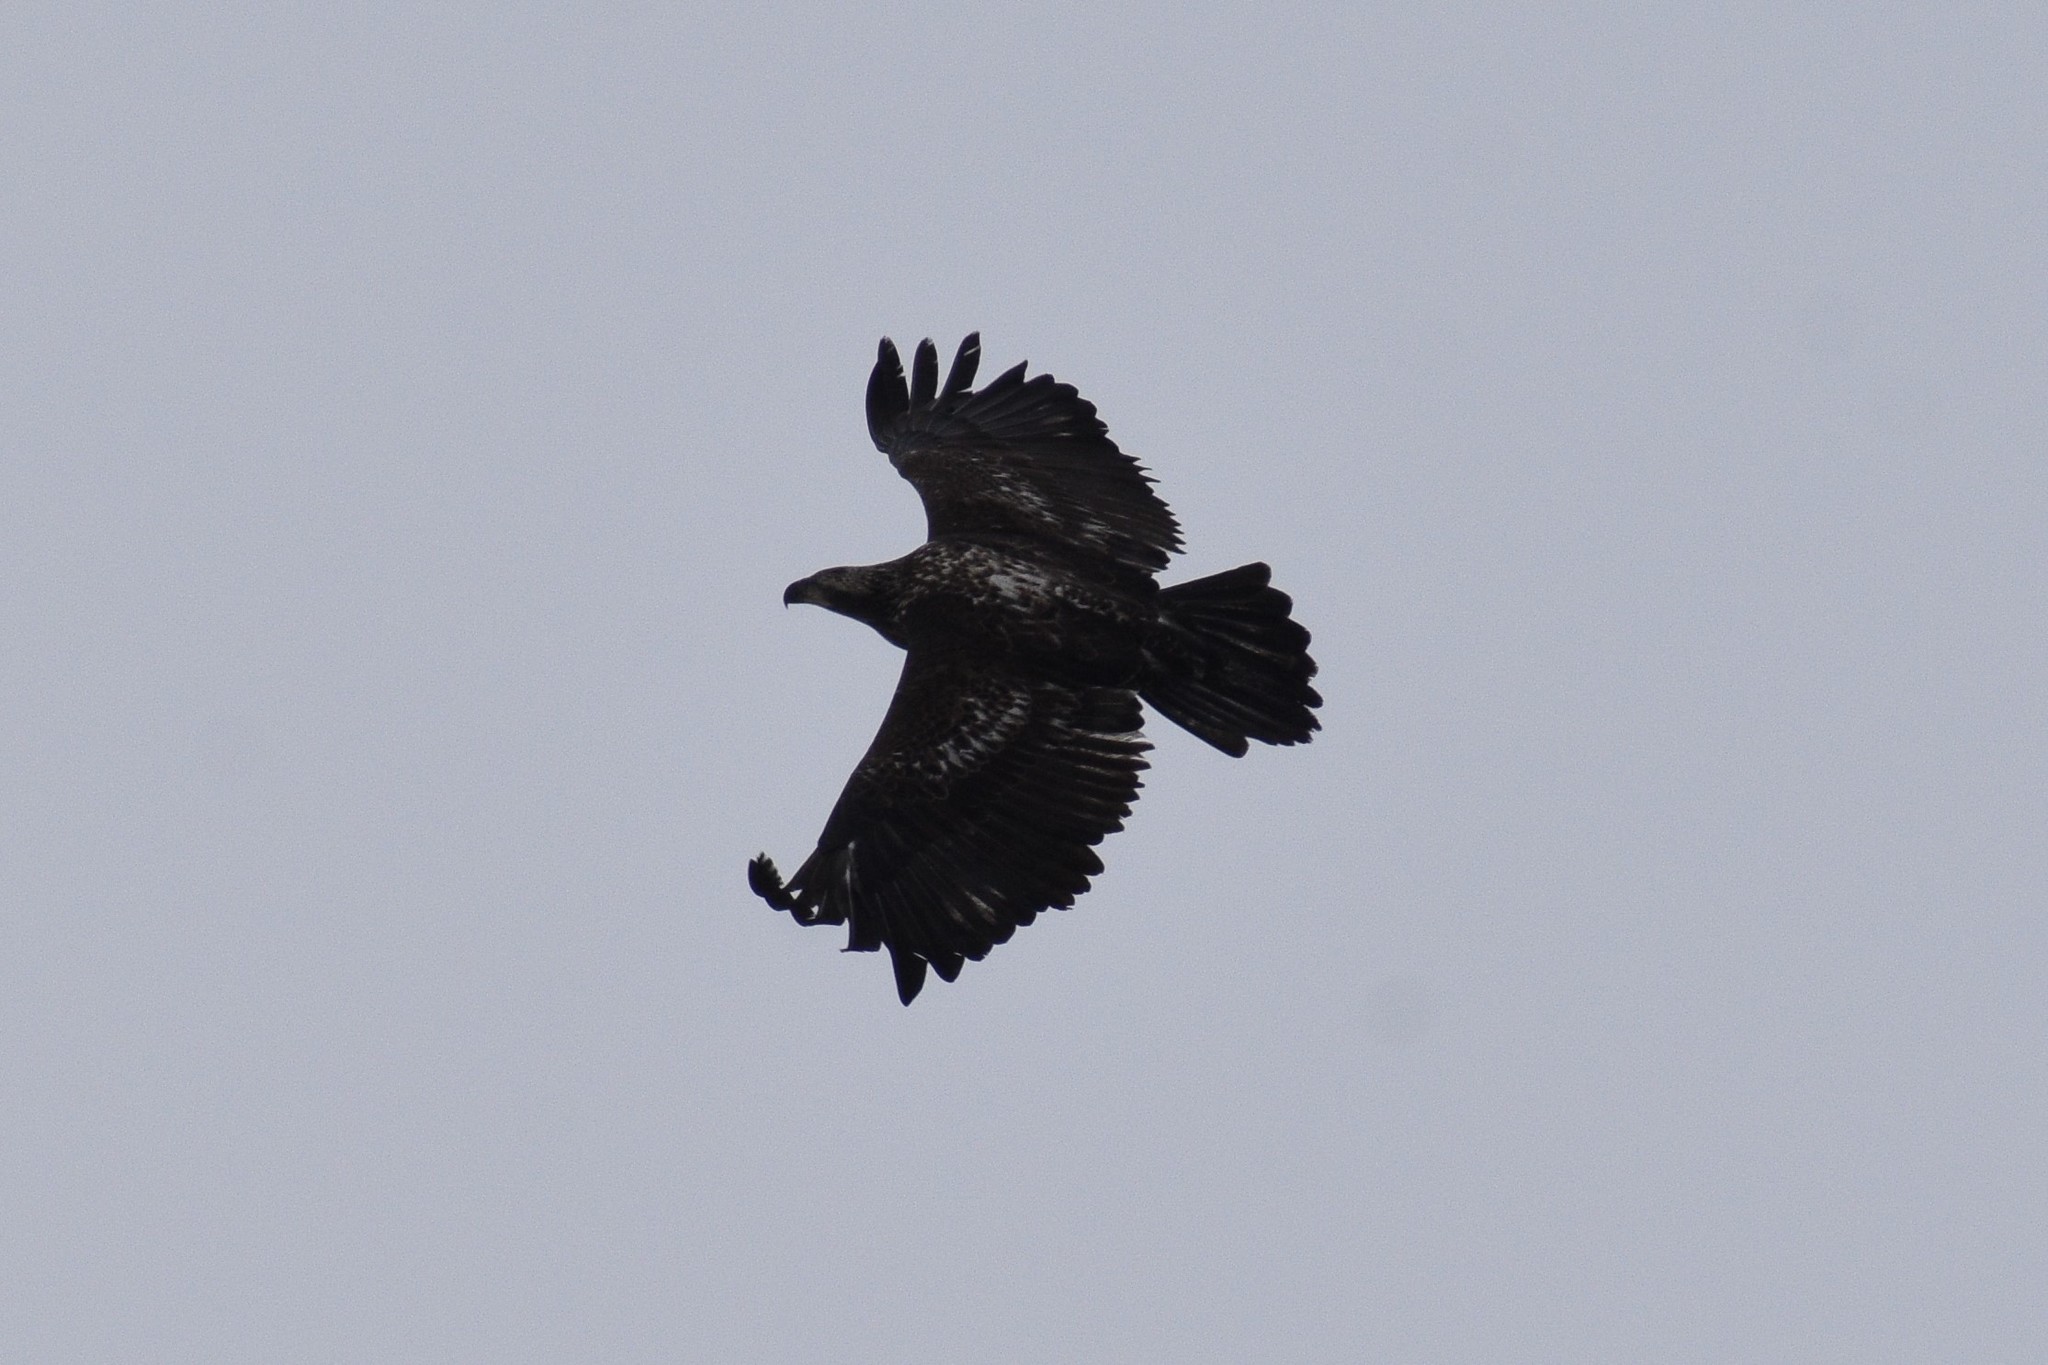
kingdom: Animalia
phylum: Chordata
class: Aves
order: Accipitriformes
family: Accipitridae
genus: Haliaeetus
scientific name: Haliaeetus leucocephalus
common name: Bald eagle
